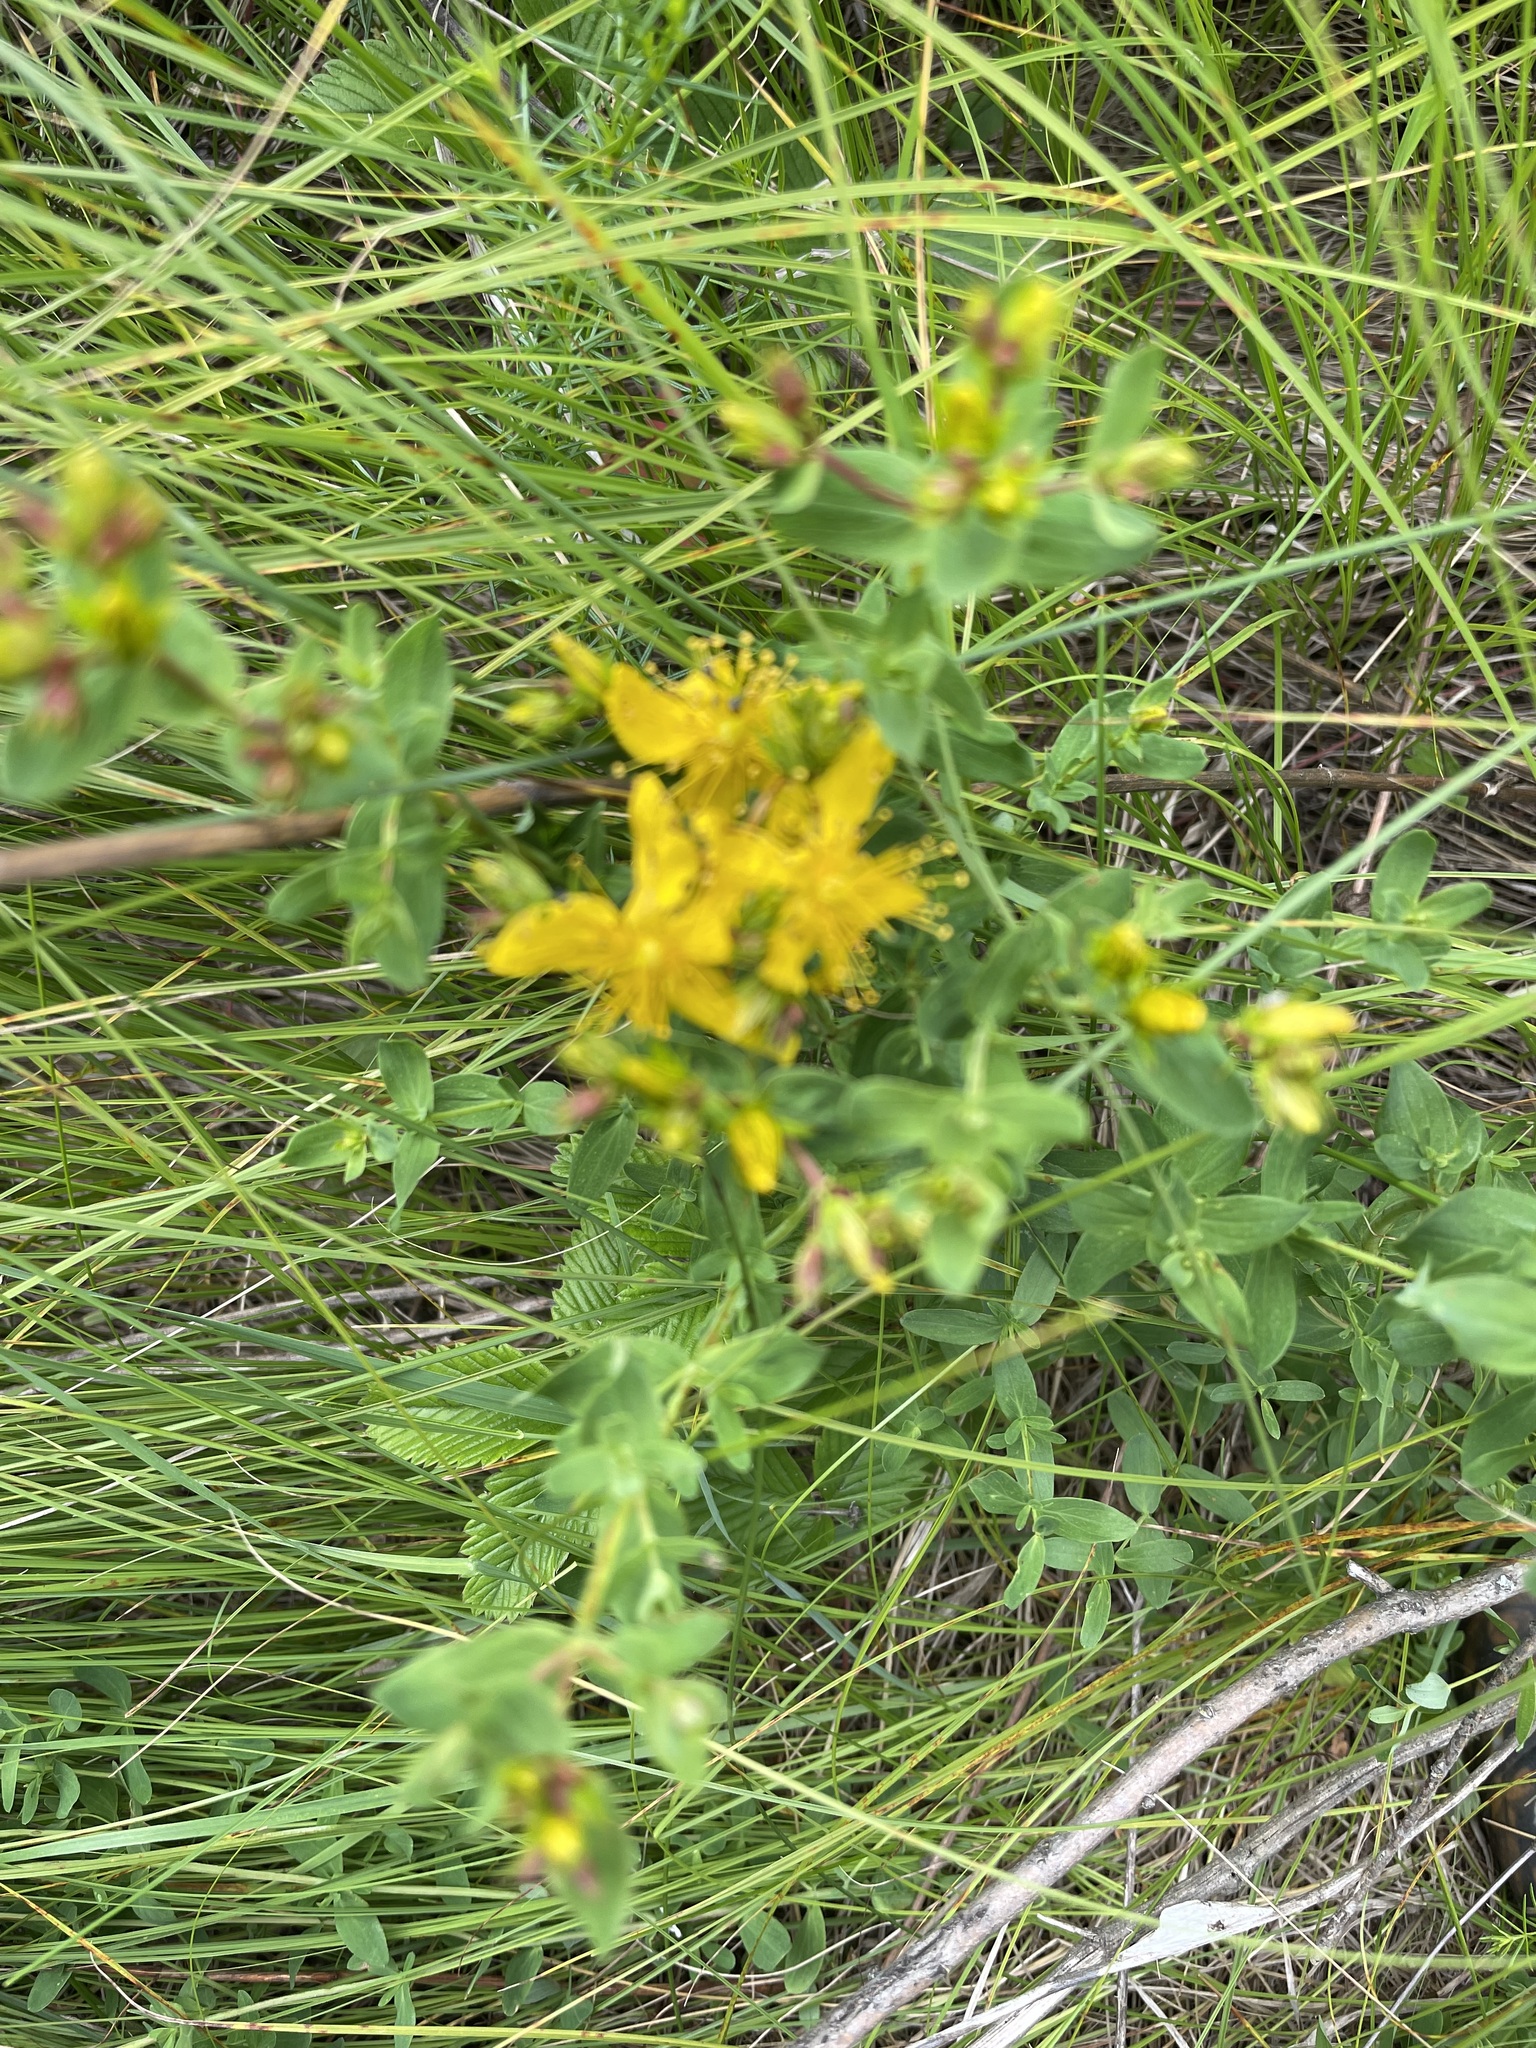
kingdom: Plantae
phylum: Tracheophyta
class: Magnoliopsida
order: Malpighiales
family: Hypericaceae
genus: Hypericum
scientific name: Hypericum perforatum
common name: Common st. johnswort
